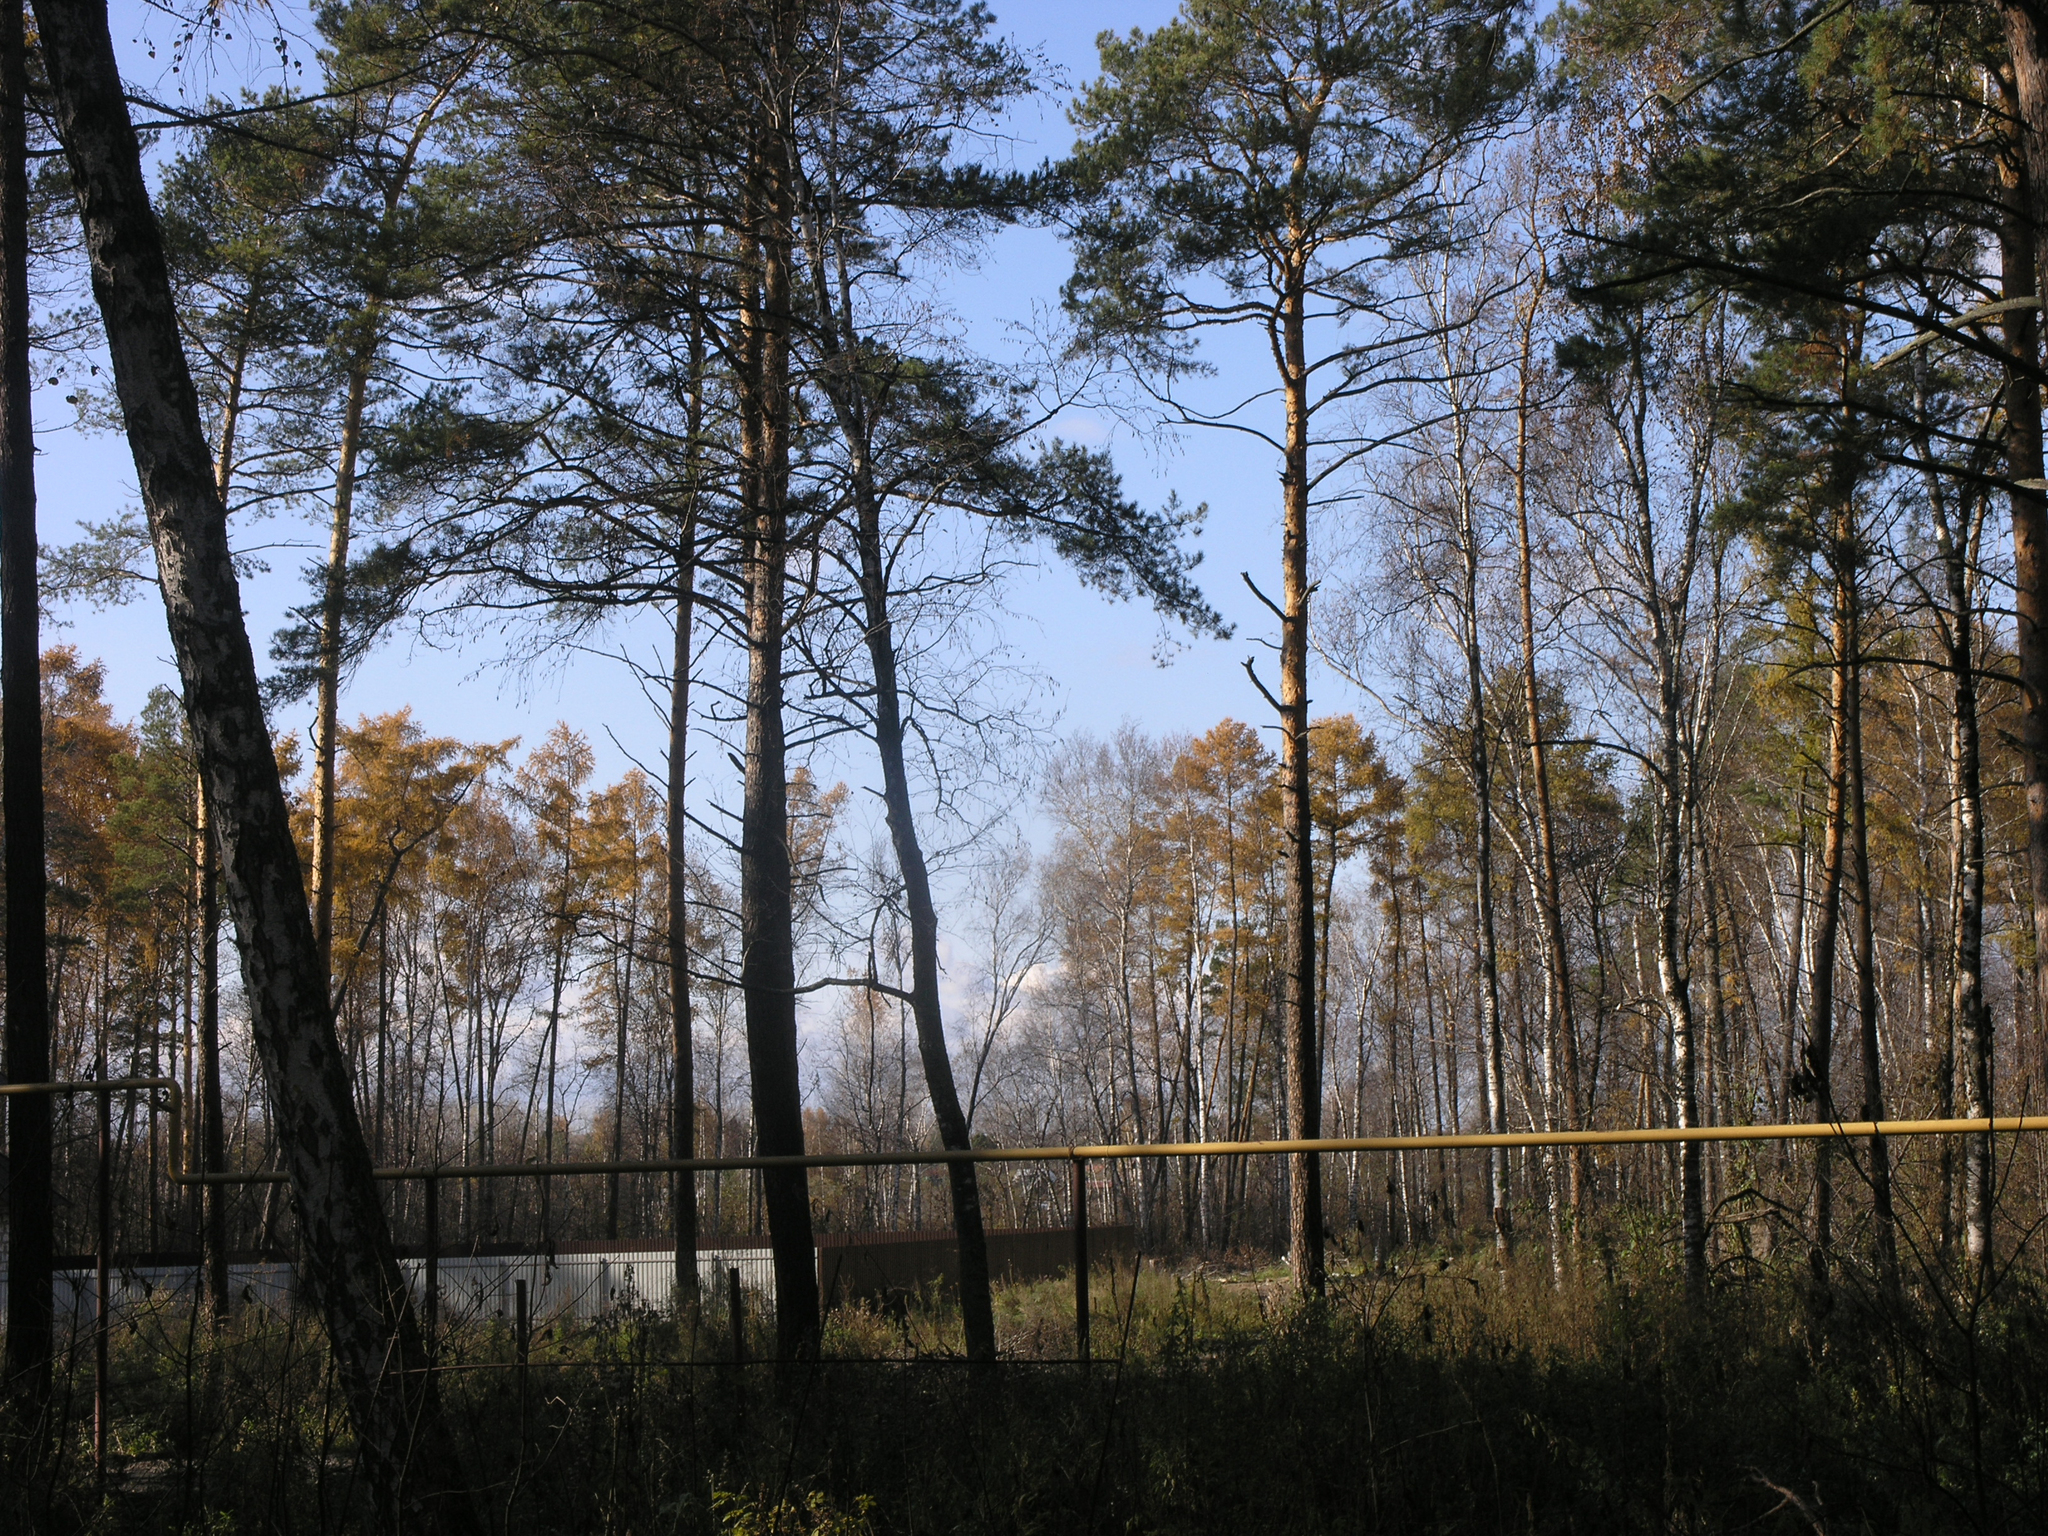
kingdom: Plantae
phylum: Tracheophyta
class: Pinopsida
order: Pinales
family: Pinaceae
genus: Larix
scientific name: Larix sibirica
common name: Siberian larch
